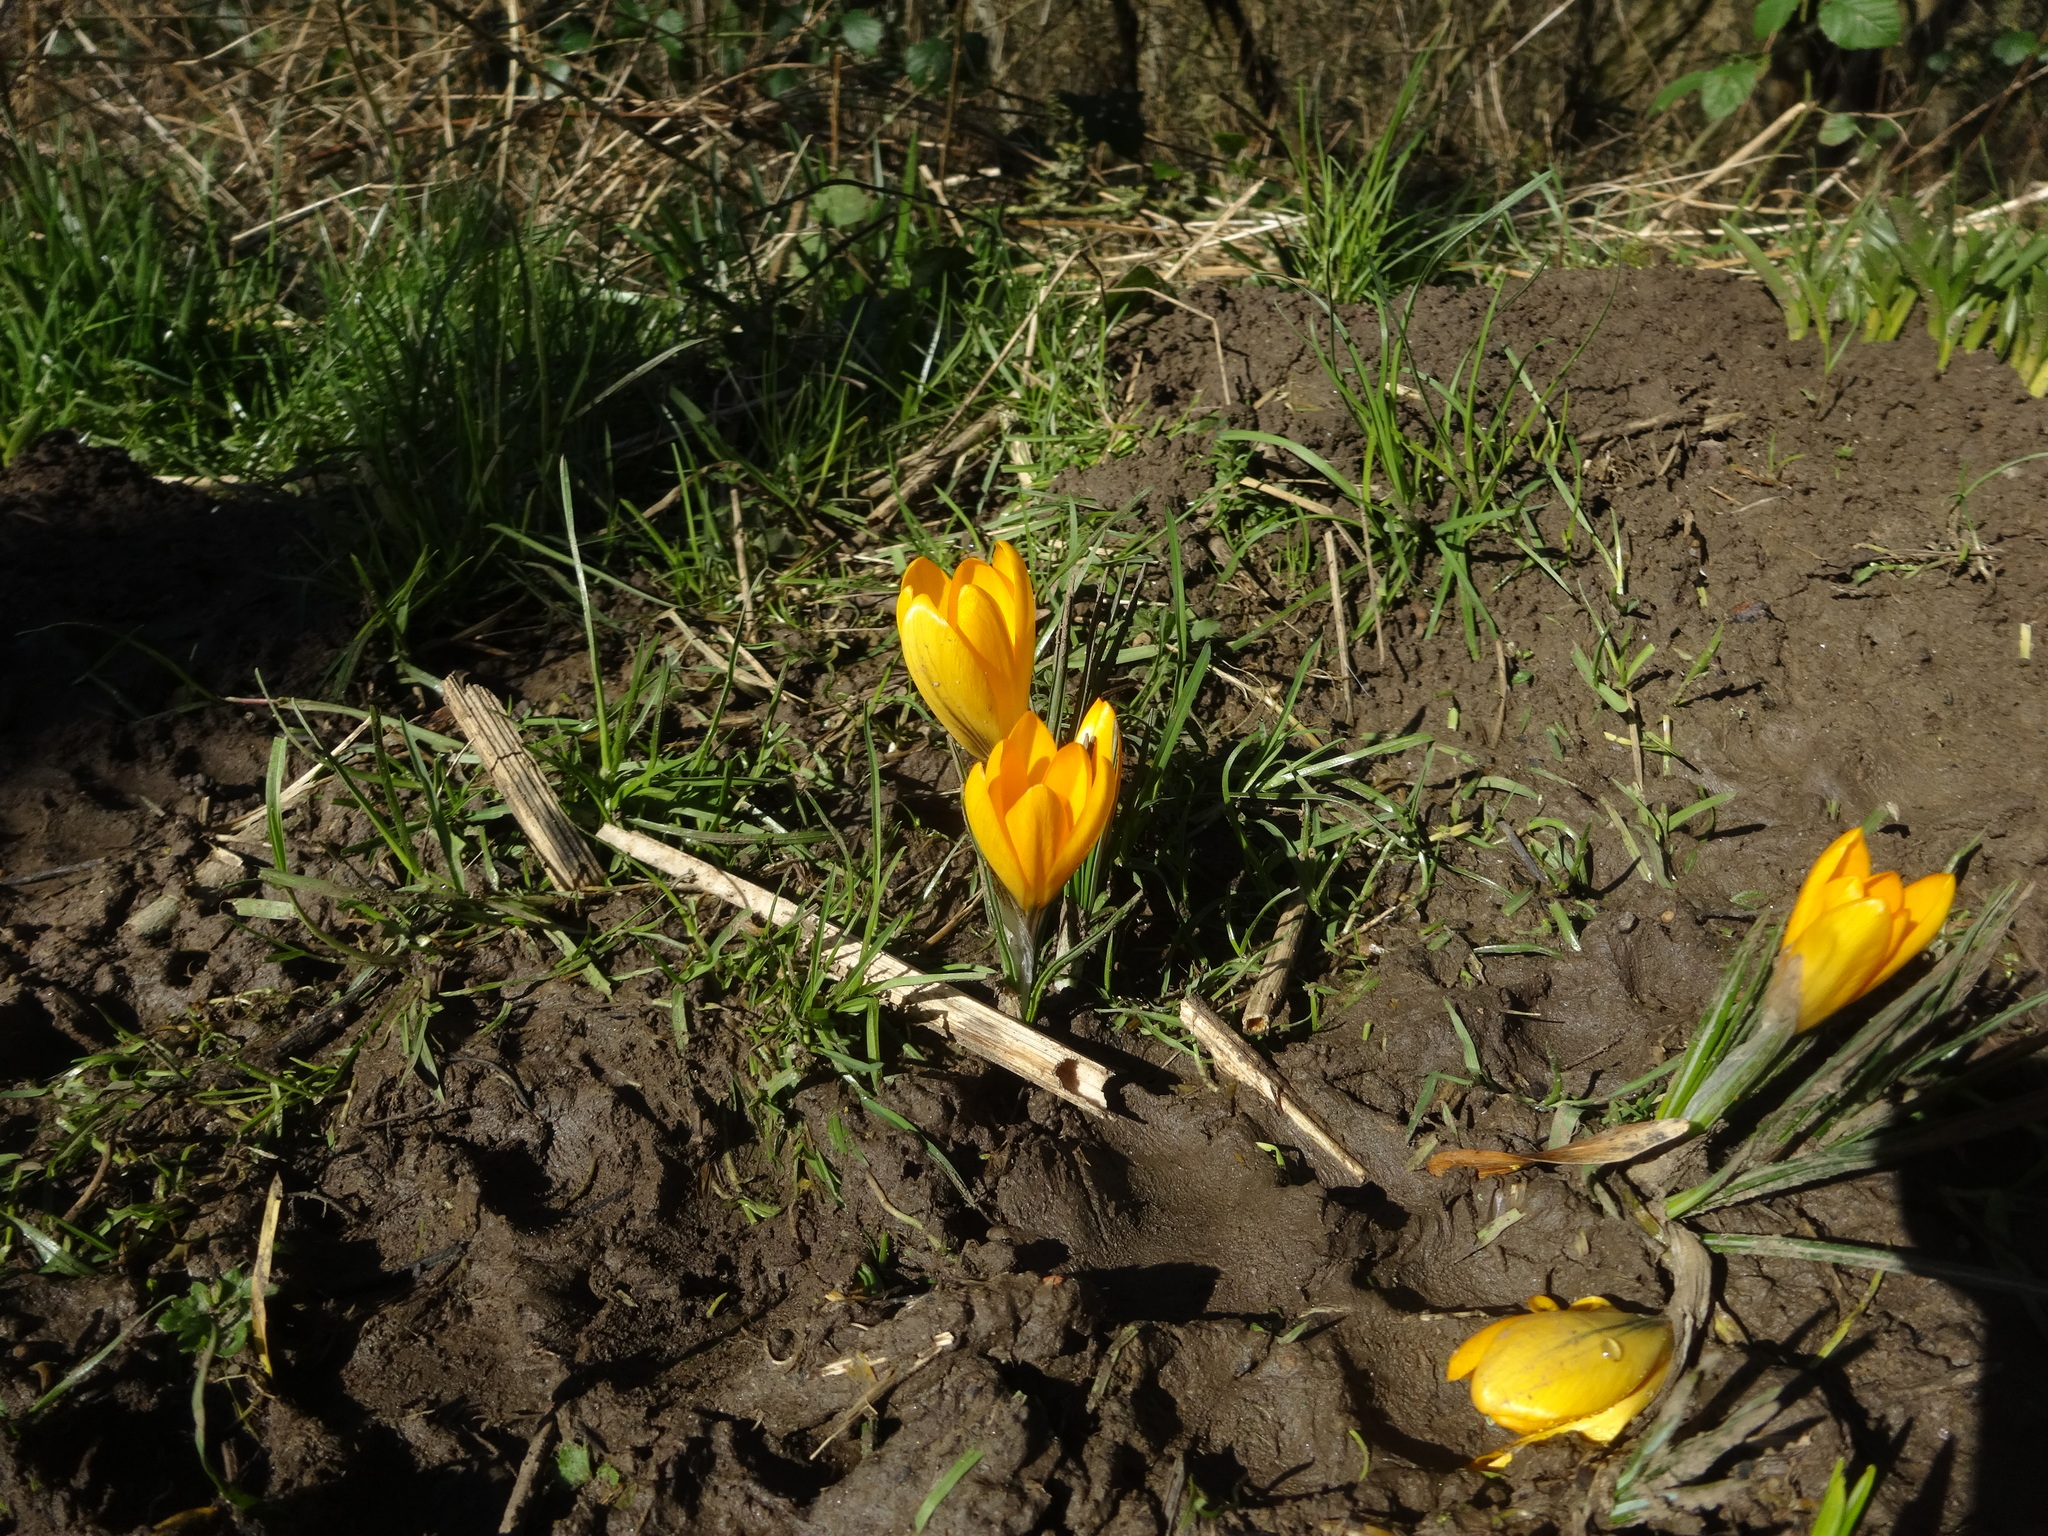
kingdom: Plantae
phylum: Tracheophyta
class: Liliopsida
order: Asparagales
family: Iridaceae
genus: Crocus
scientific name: Crocus luteus
